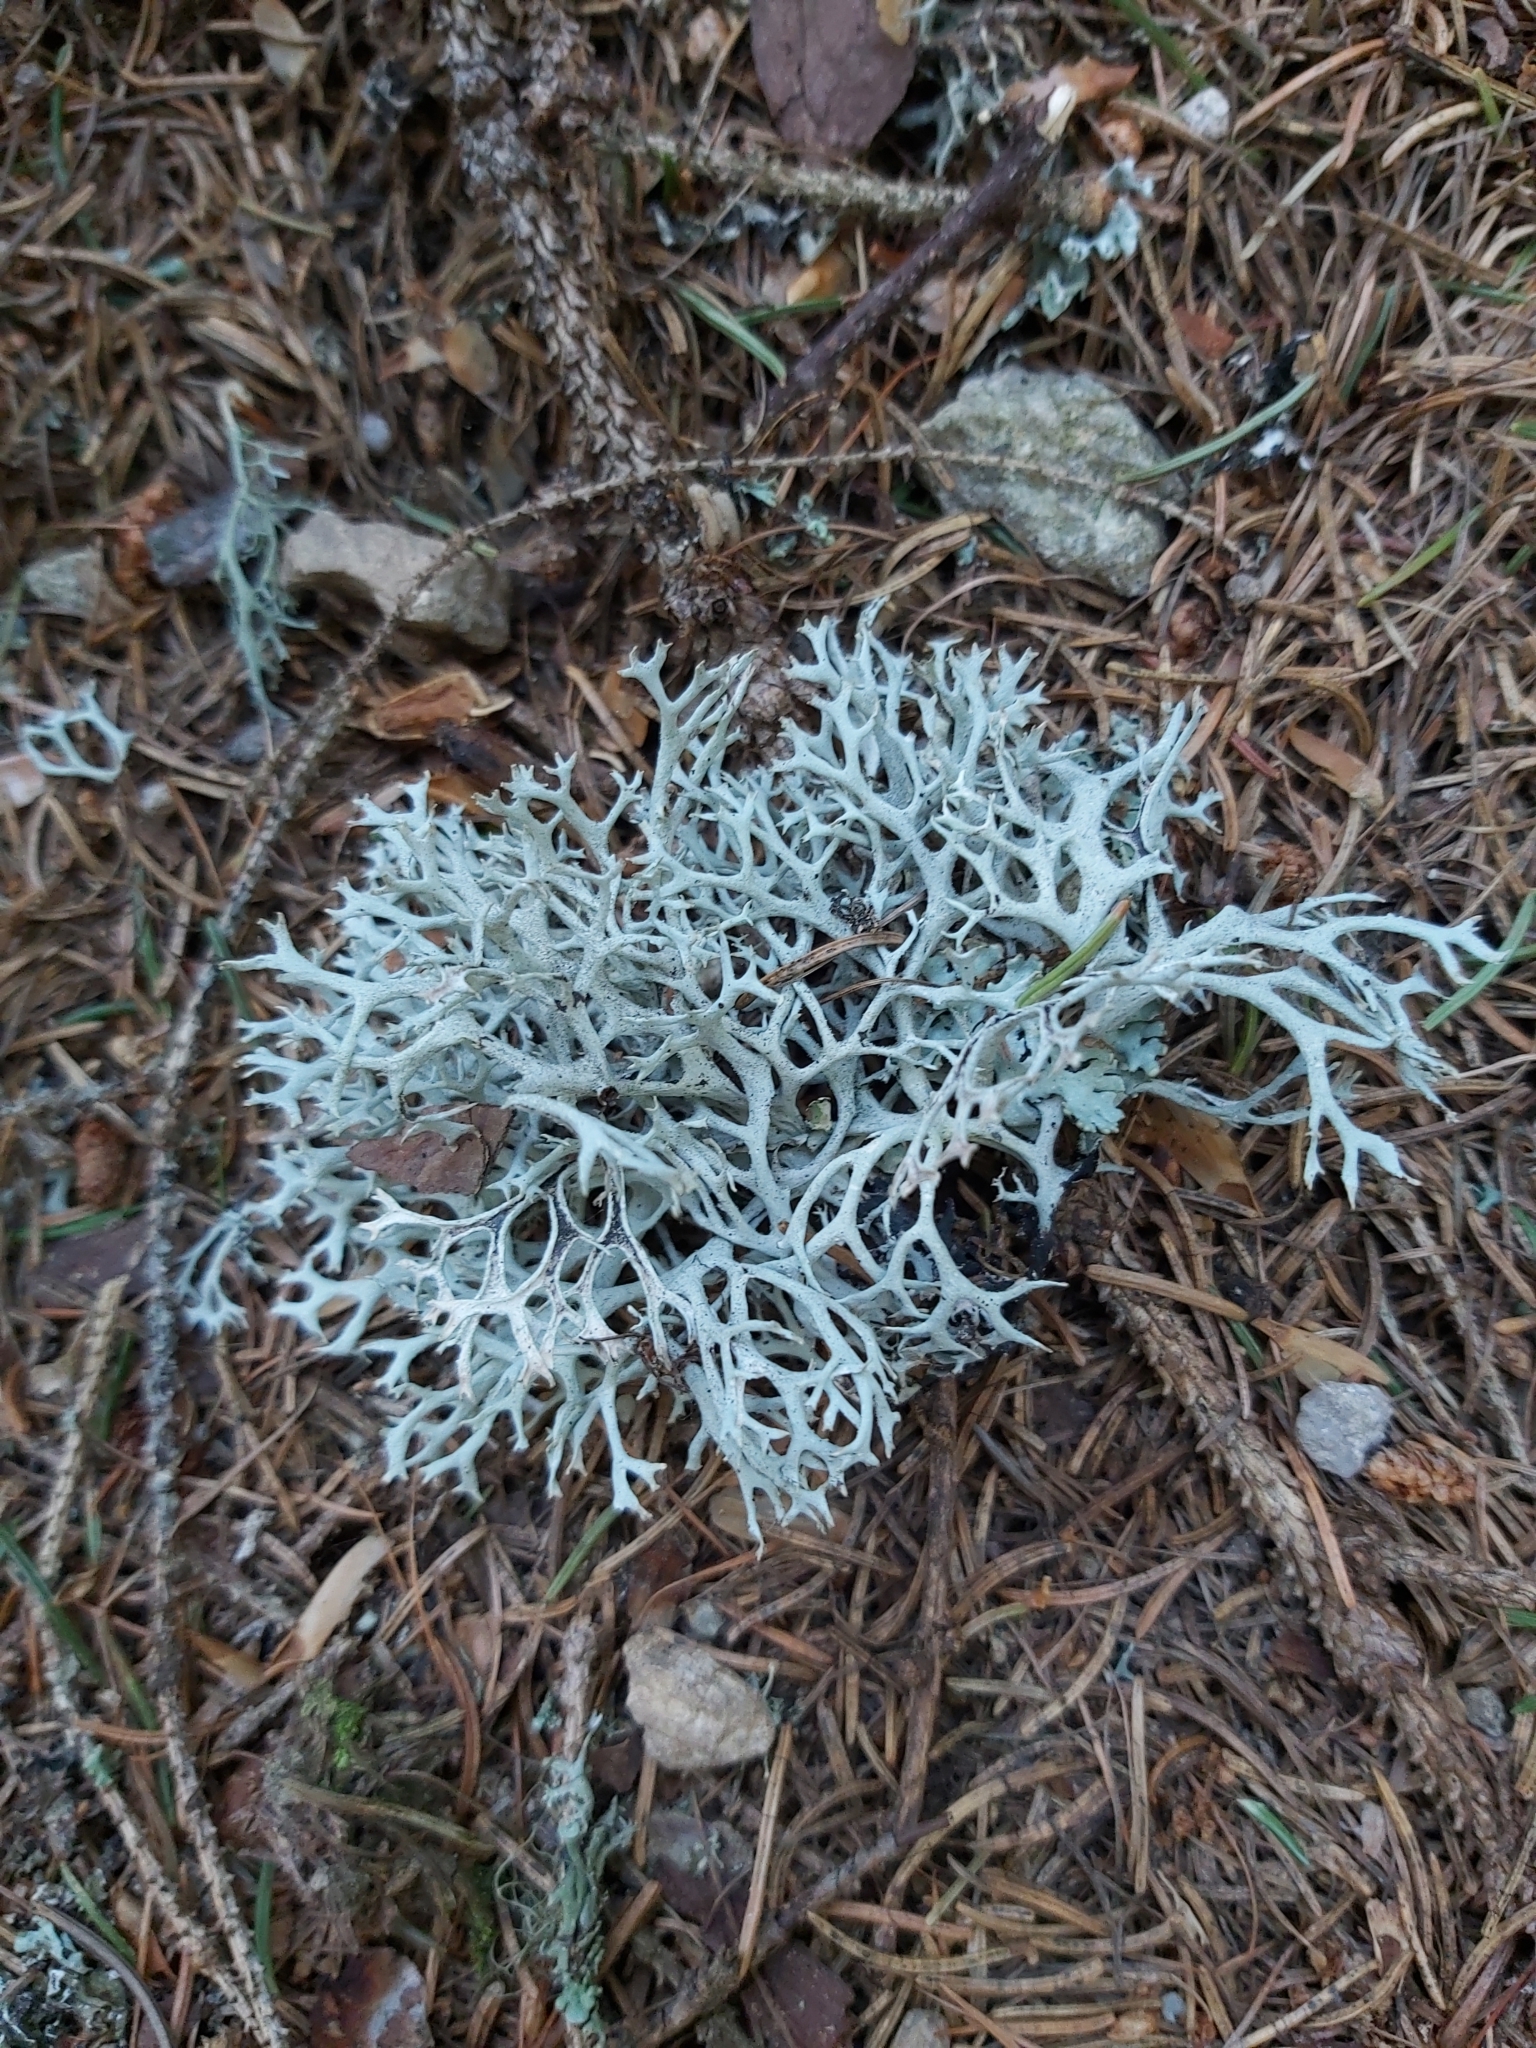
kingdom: Fungi
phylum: Ascomycota
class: Lecanoromycetes
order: Lecanorales
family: Parmeliaceae
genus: Pseudevernia
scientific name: Pseudevernia furfuracea
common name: Tree moss
